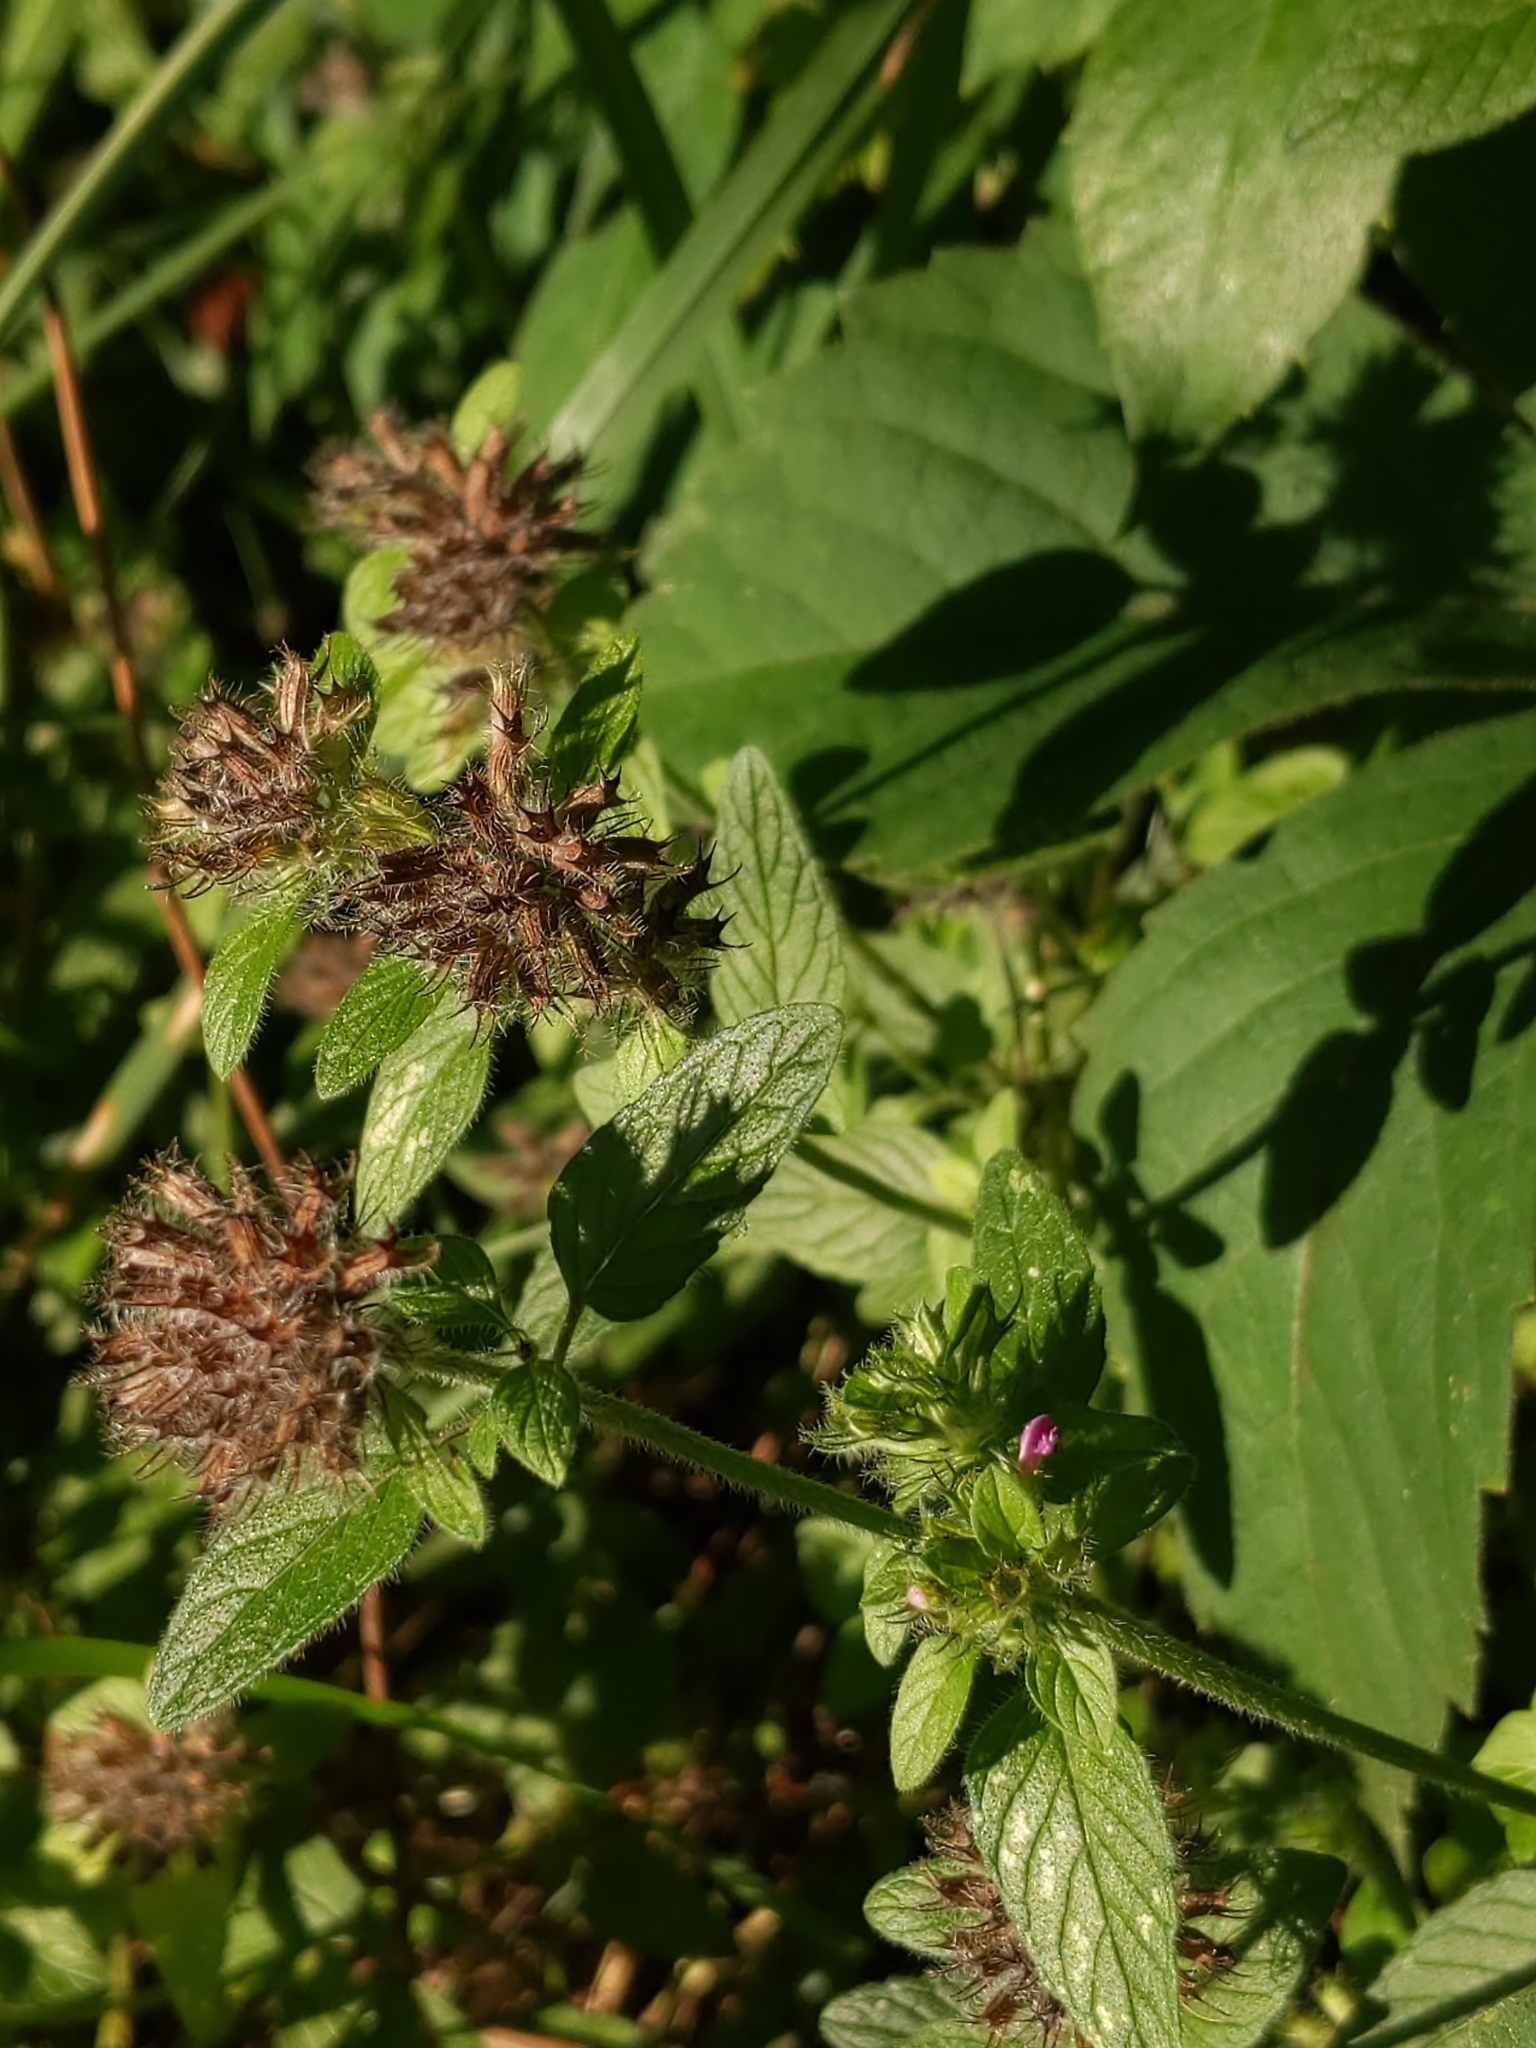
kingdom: Plantae
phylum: Tracheophyta
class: Magnoliopsida
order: Lamiales
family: Lamiaceae
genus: Clinopodium
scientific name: Clinopodium vulgare
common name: Wild basil
